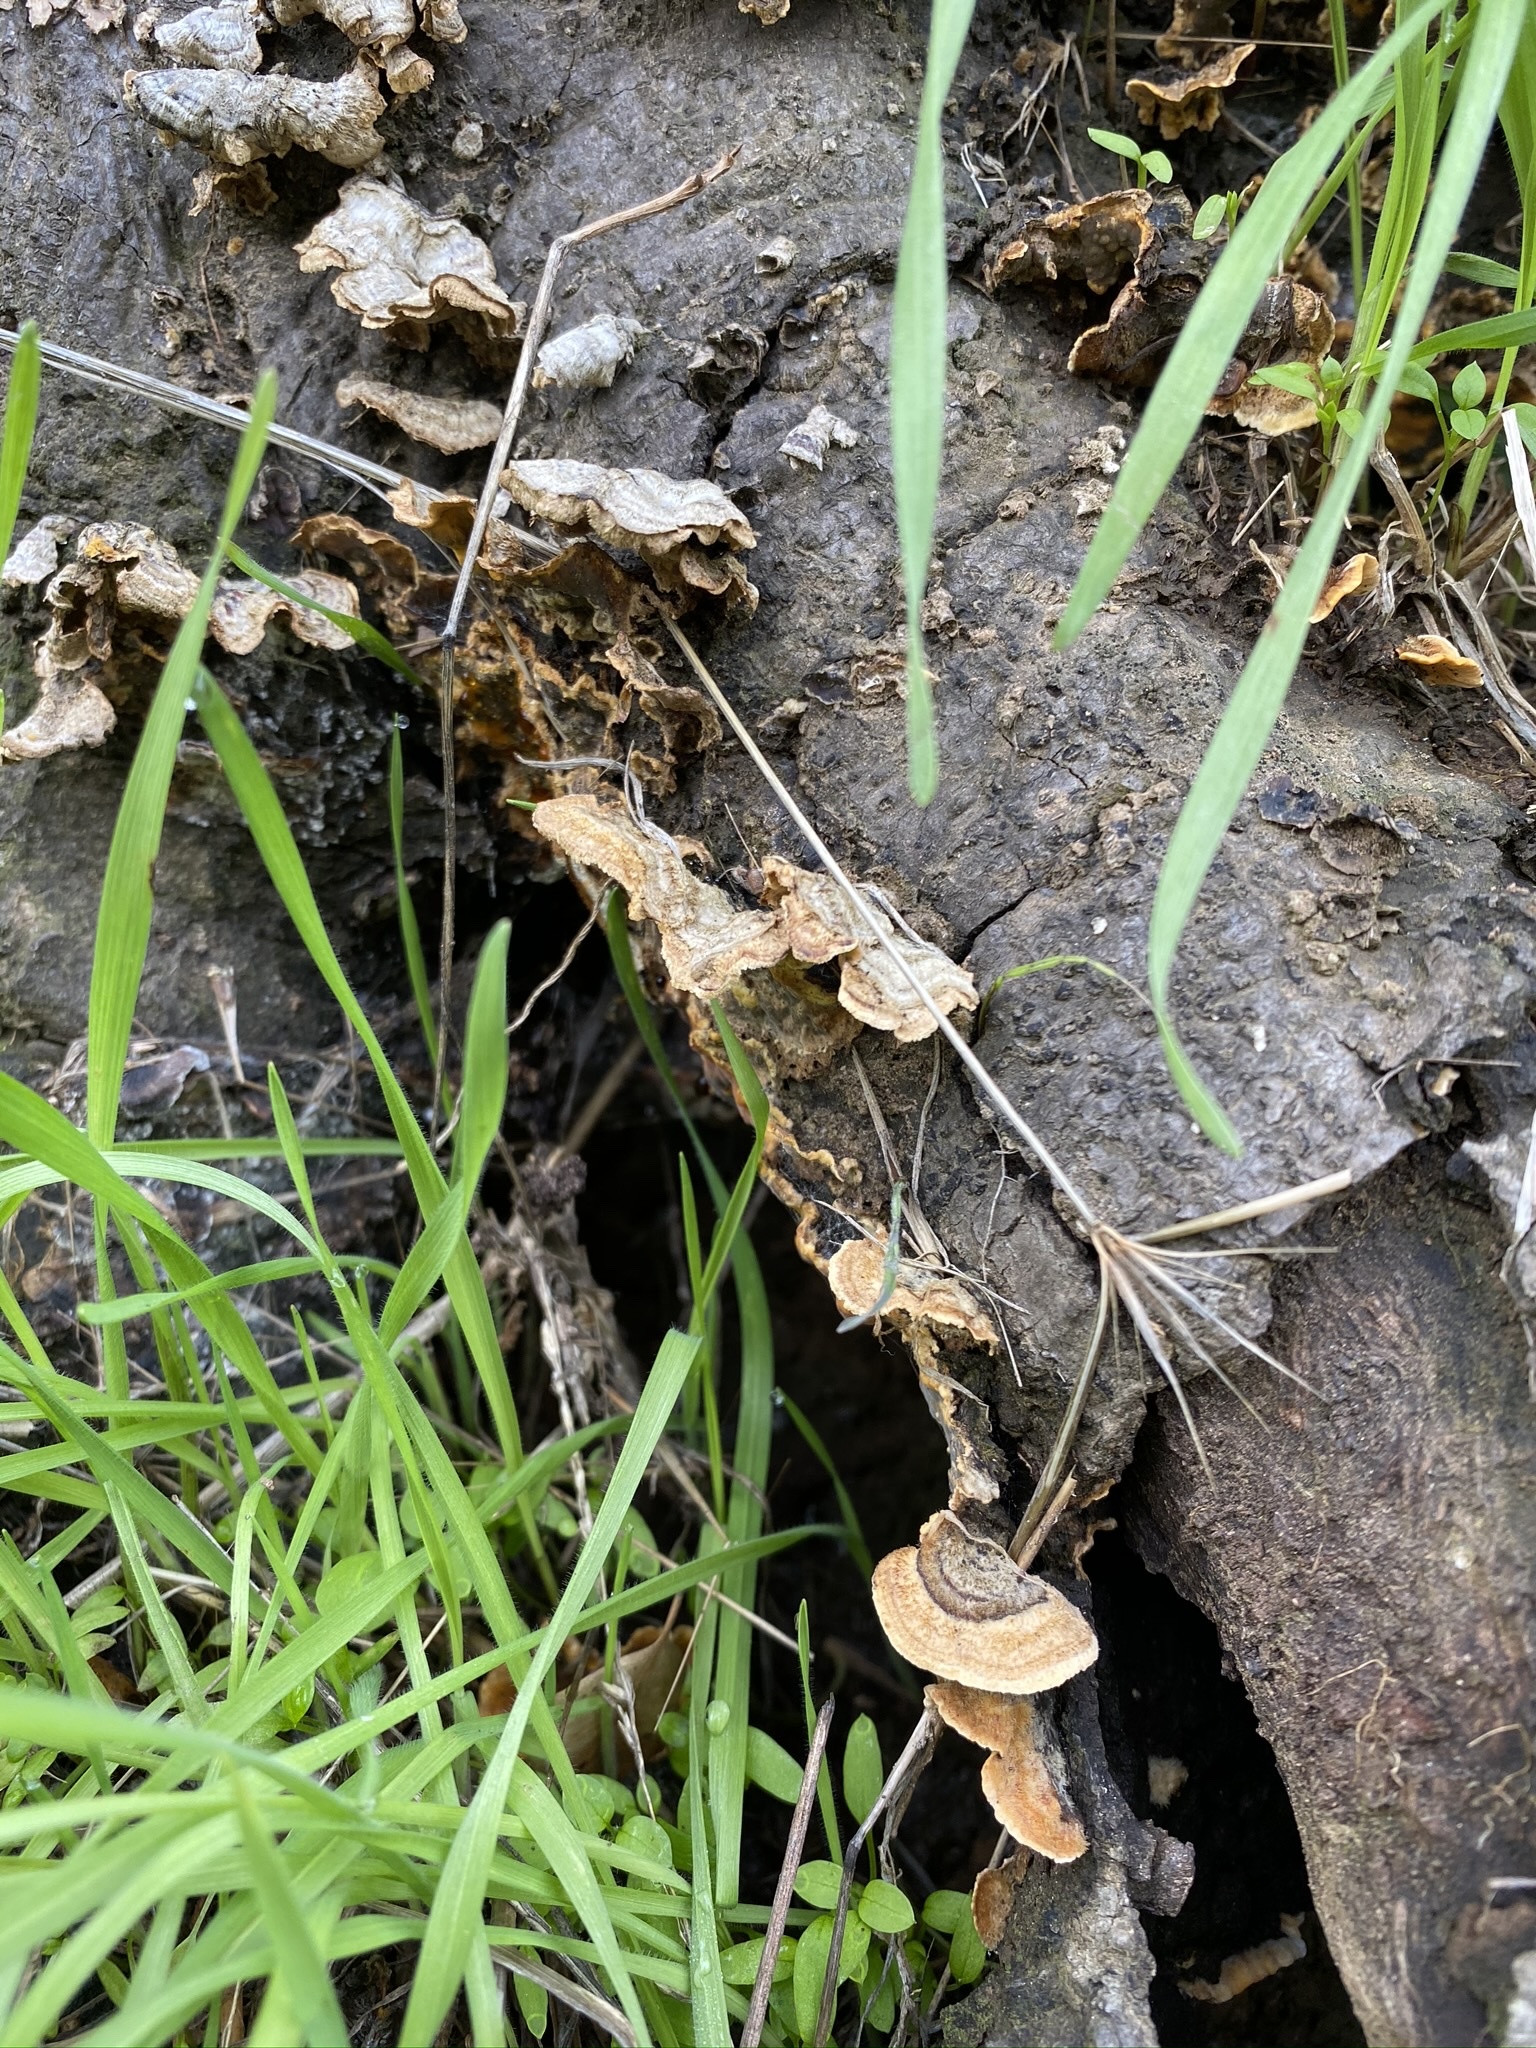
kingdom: Fungi
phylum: Basidiomycota
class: Agaricomycetes
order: Russulales
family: Stereaceae
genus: Stereum
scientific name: Stereum hirsutum
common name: Hairy curtain crust
